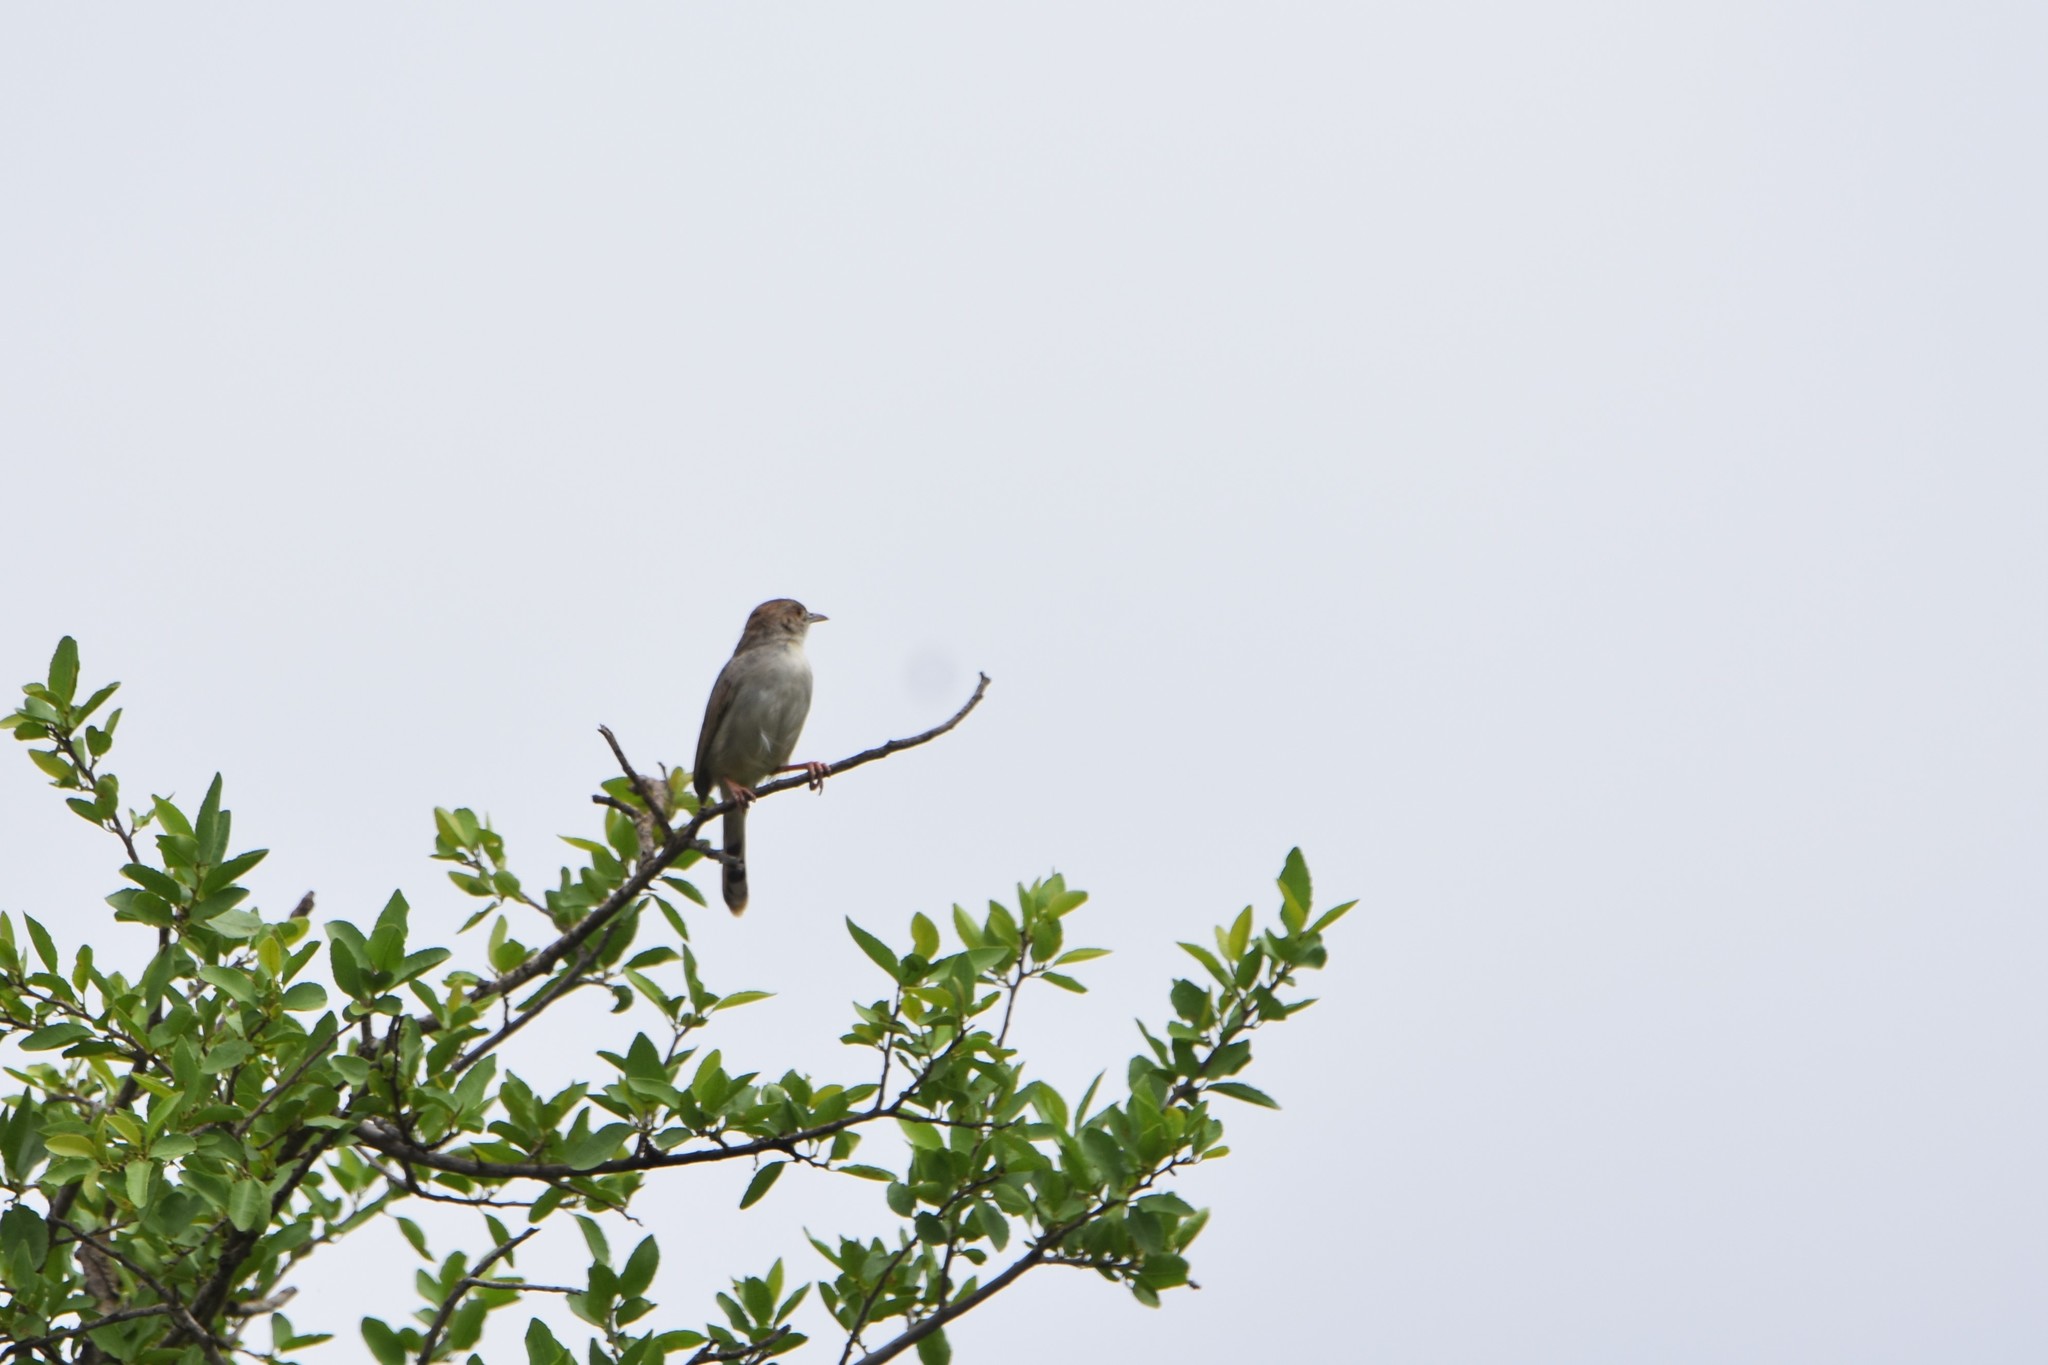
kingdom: Animalia
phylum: Chordata
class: Aves
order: Passeriformes
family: Cisticolidae
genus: Cisticola
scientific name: Cisticola chiniana
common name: Rattling cisticola
